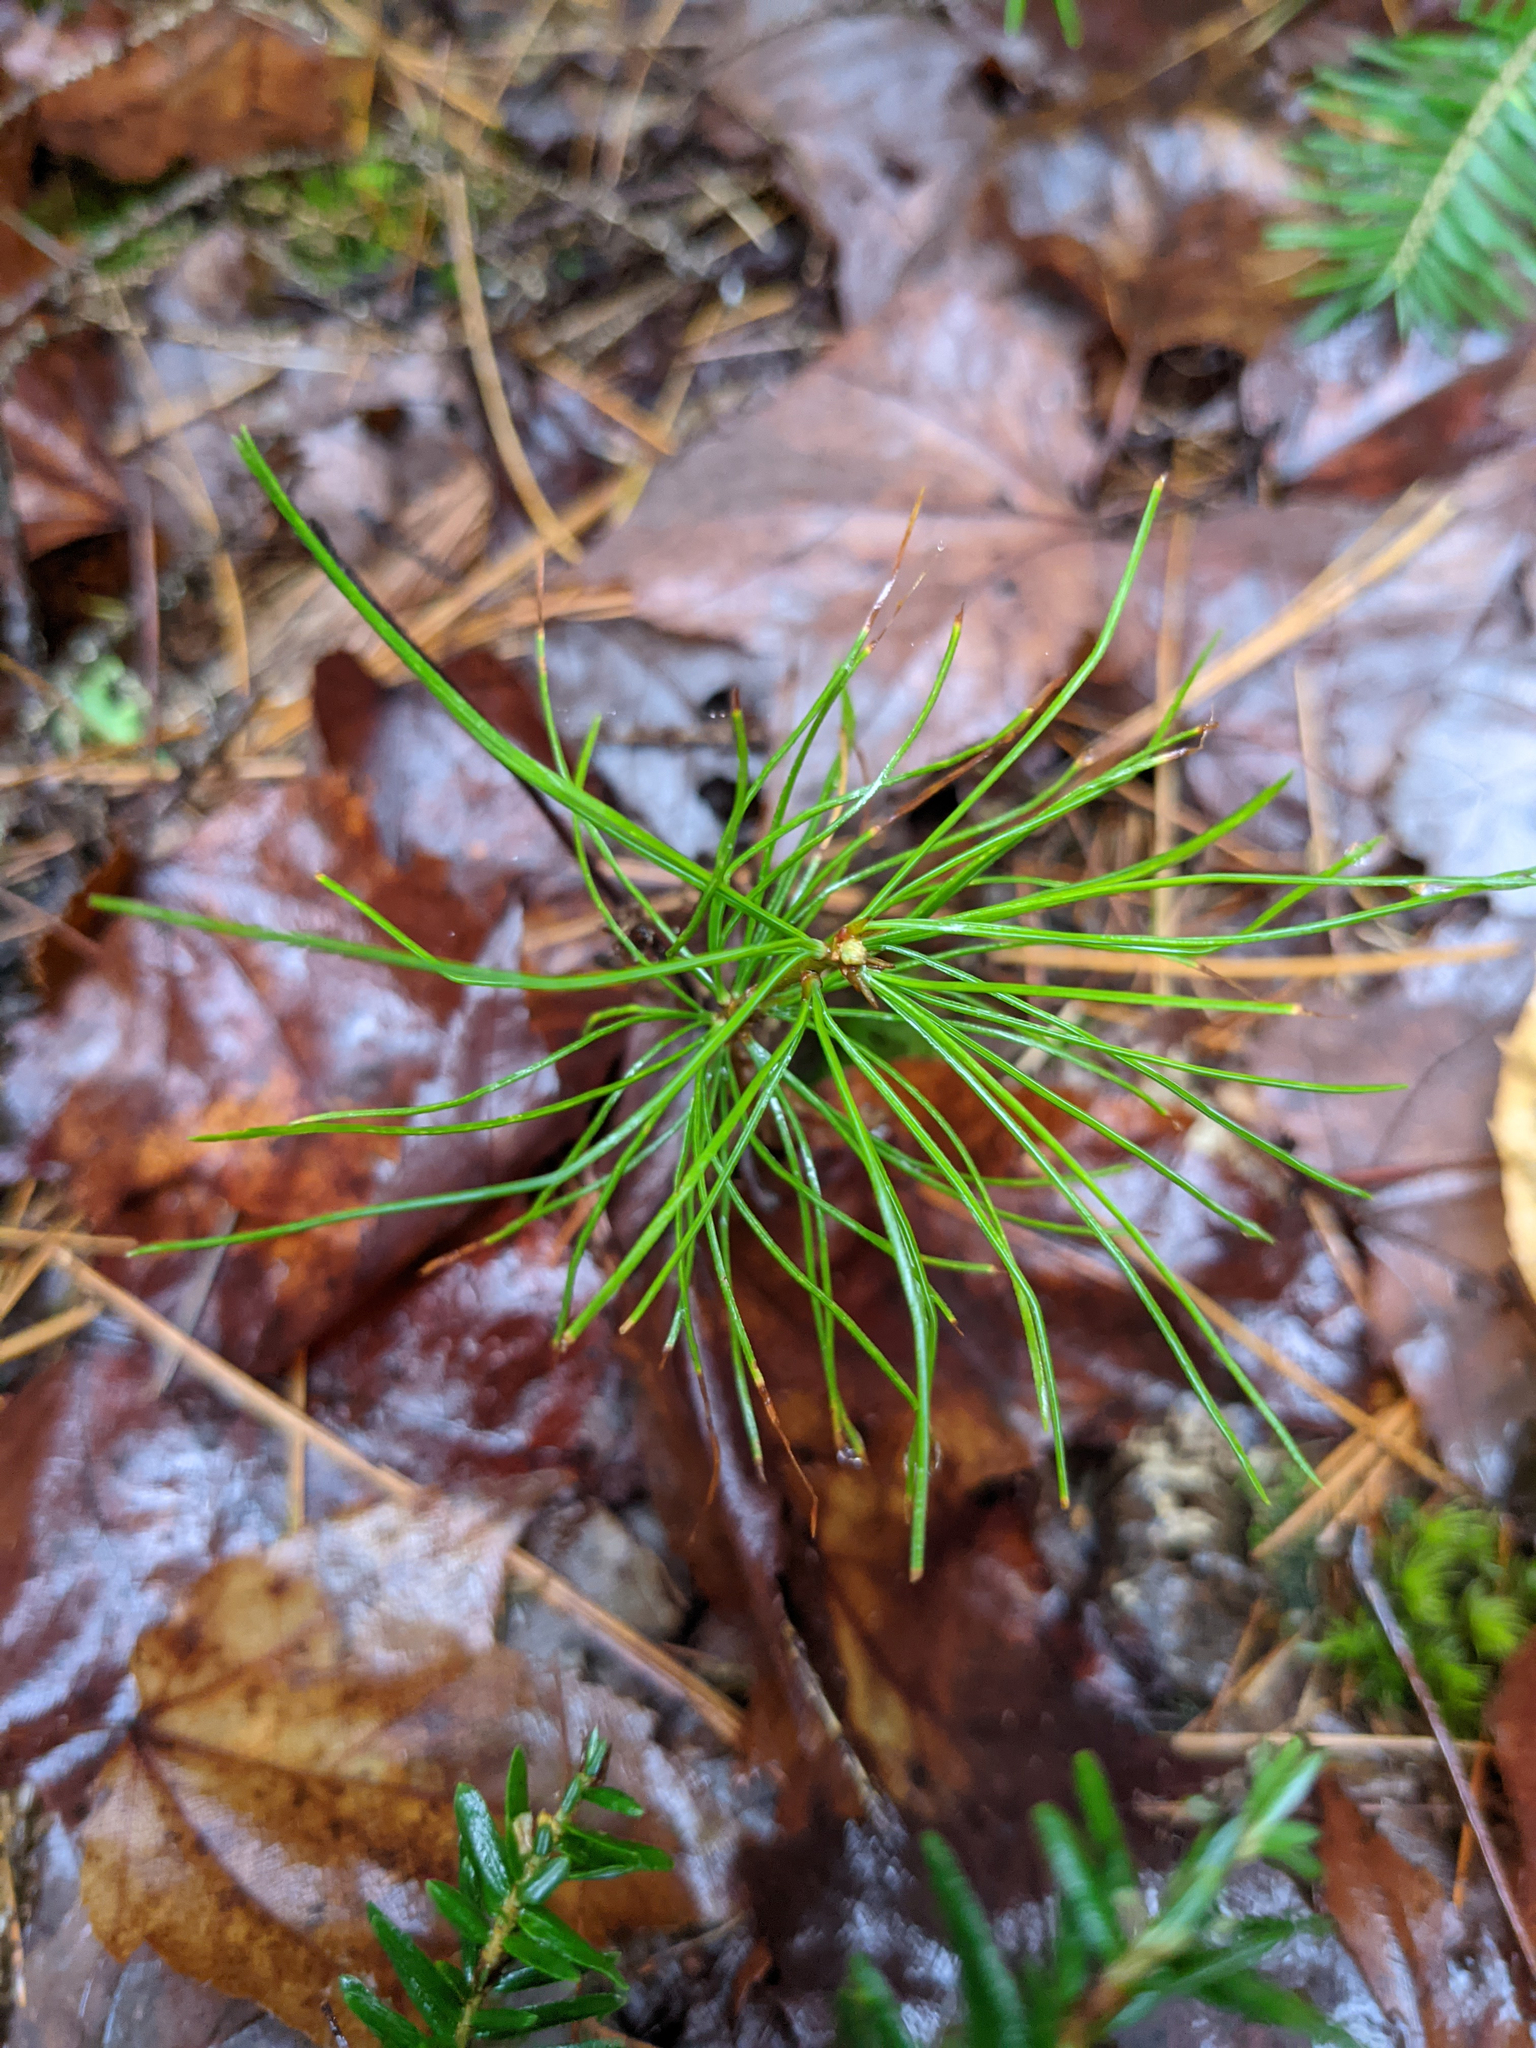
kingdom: Plantae
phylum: Tracheophyta
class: Pinopsida
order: Pinales
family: Pinaceae
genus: Pinus
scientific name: Pinus strobus
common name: Weymouth pine
